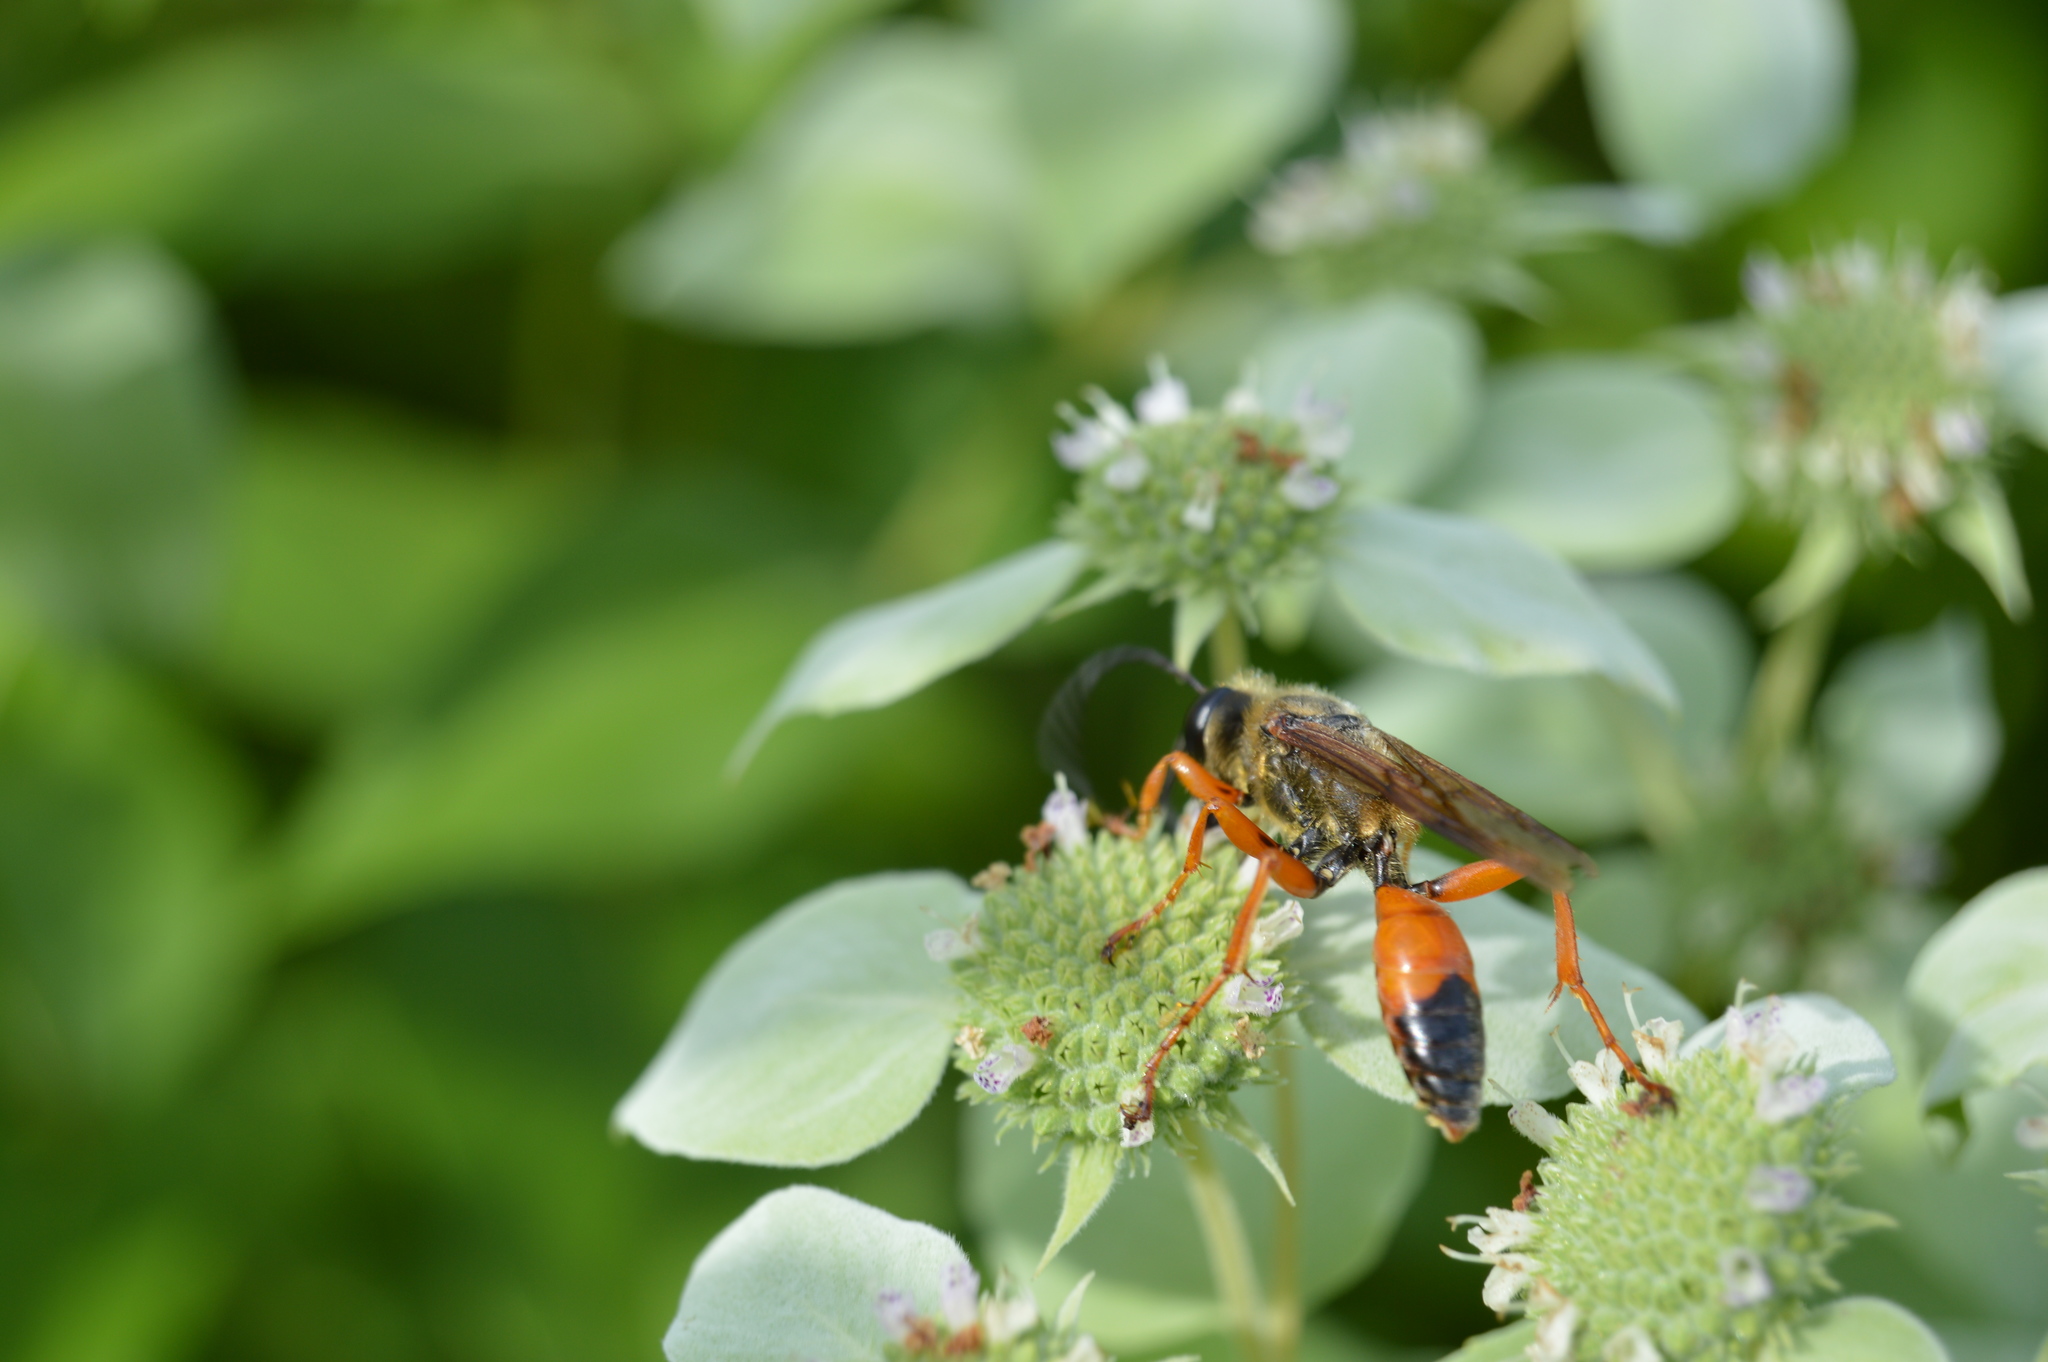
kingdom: Animalia
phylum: Arthropoda
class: Insecta
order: Hymenoptera
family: Sphecidae
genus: Sphex
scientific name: Sphex ichneumoneus
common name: Great golden digger wasp
